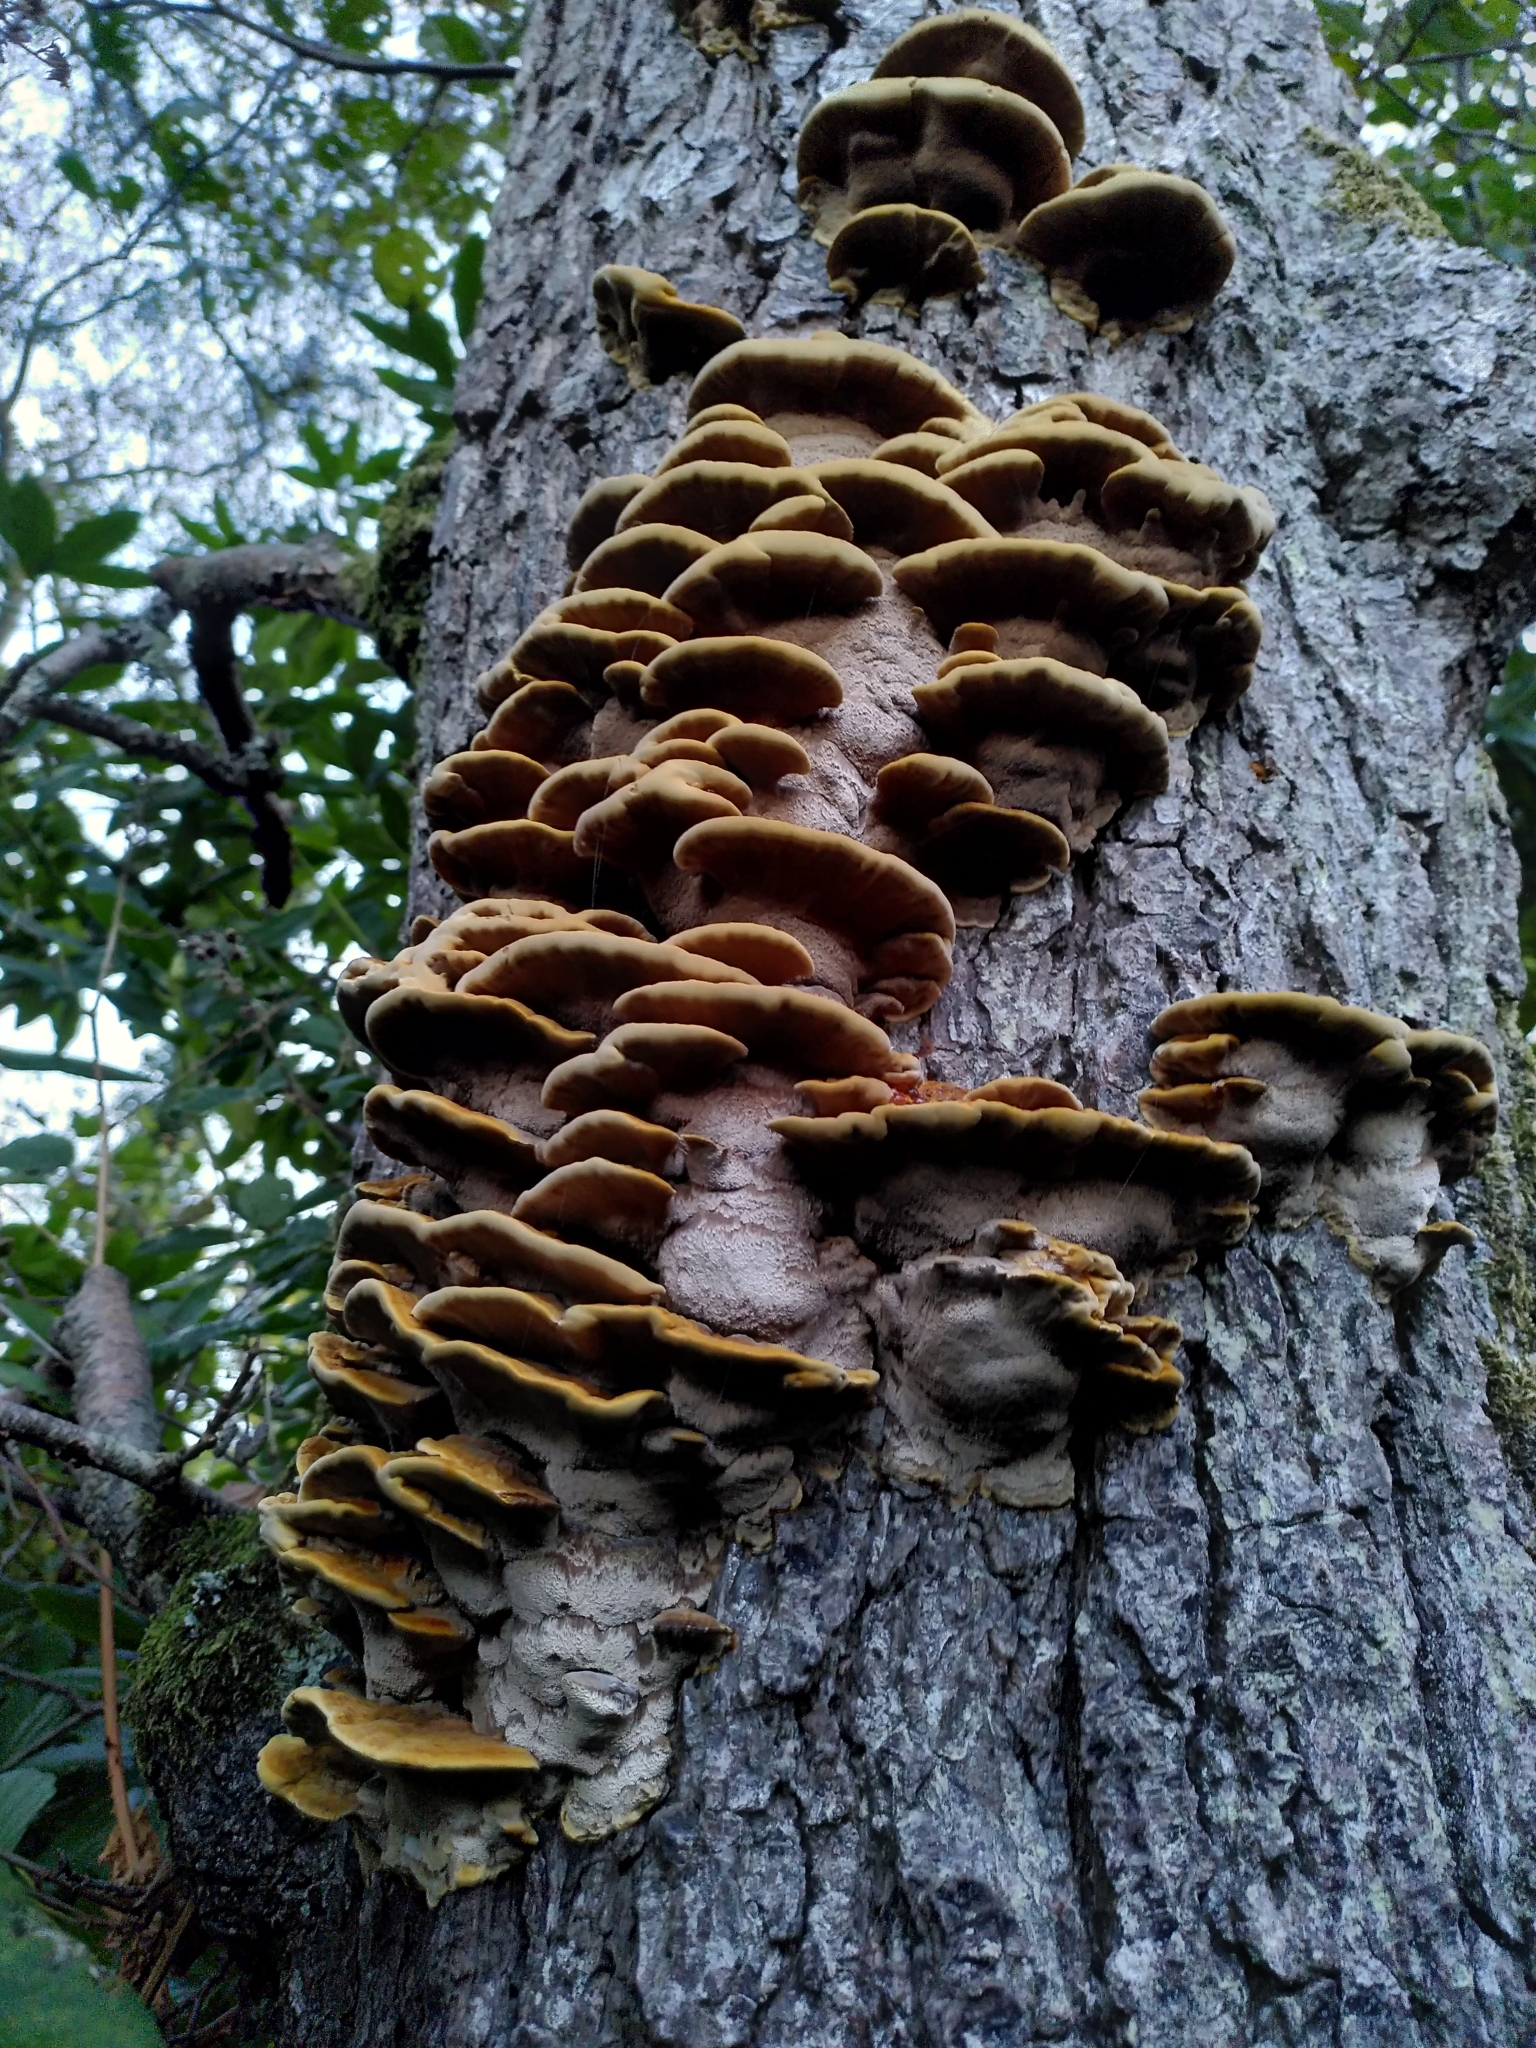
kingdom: Fungi
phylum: Basidiomycota
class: Agaricomycetes
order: Hymenochaetales
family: Hymenochaetaceae
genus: Xanthoporia
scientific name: Xanthoporia radiata
